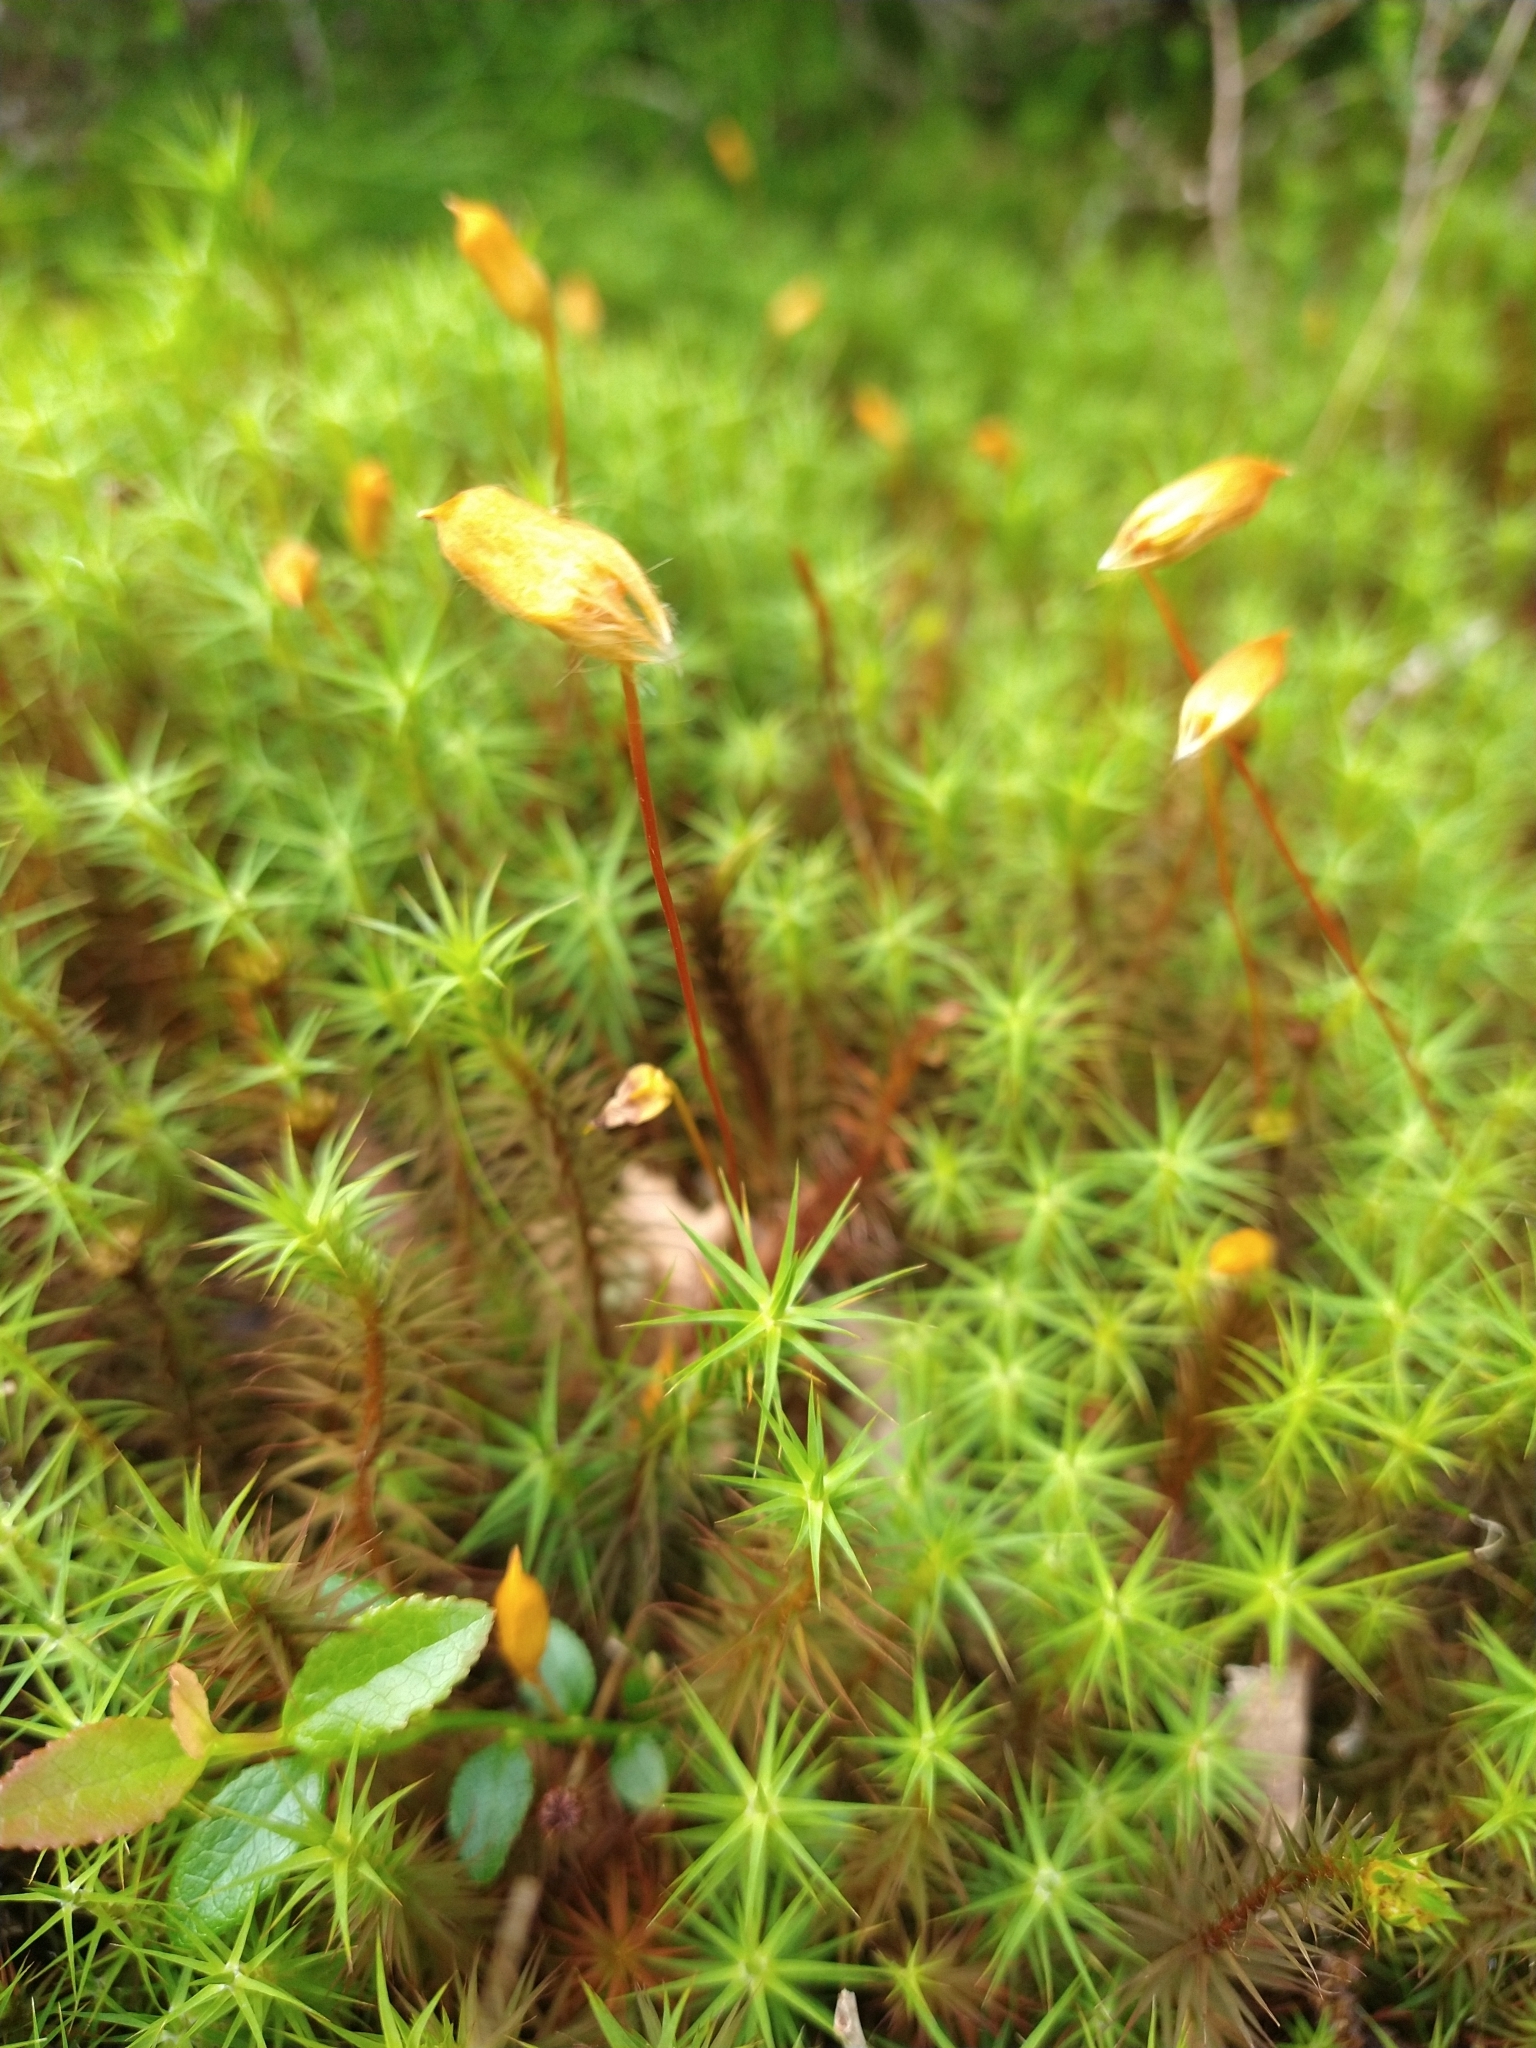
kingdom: Plantae
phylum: Bryophyta
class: Polytrichopsida
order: Polytrichales
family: Polytrichaceae
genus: Polytrichum
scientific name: Polytrichum commune
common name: Common haircap
